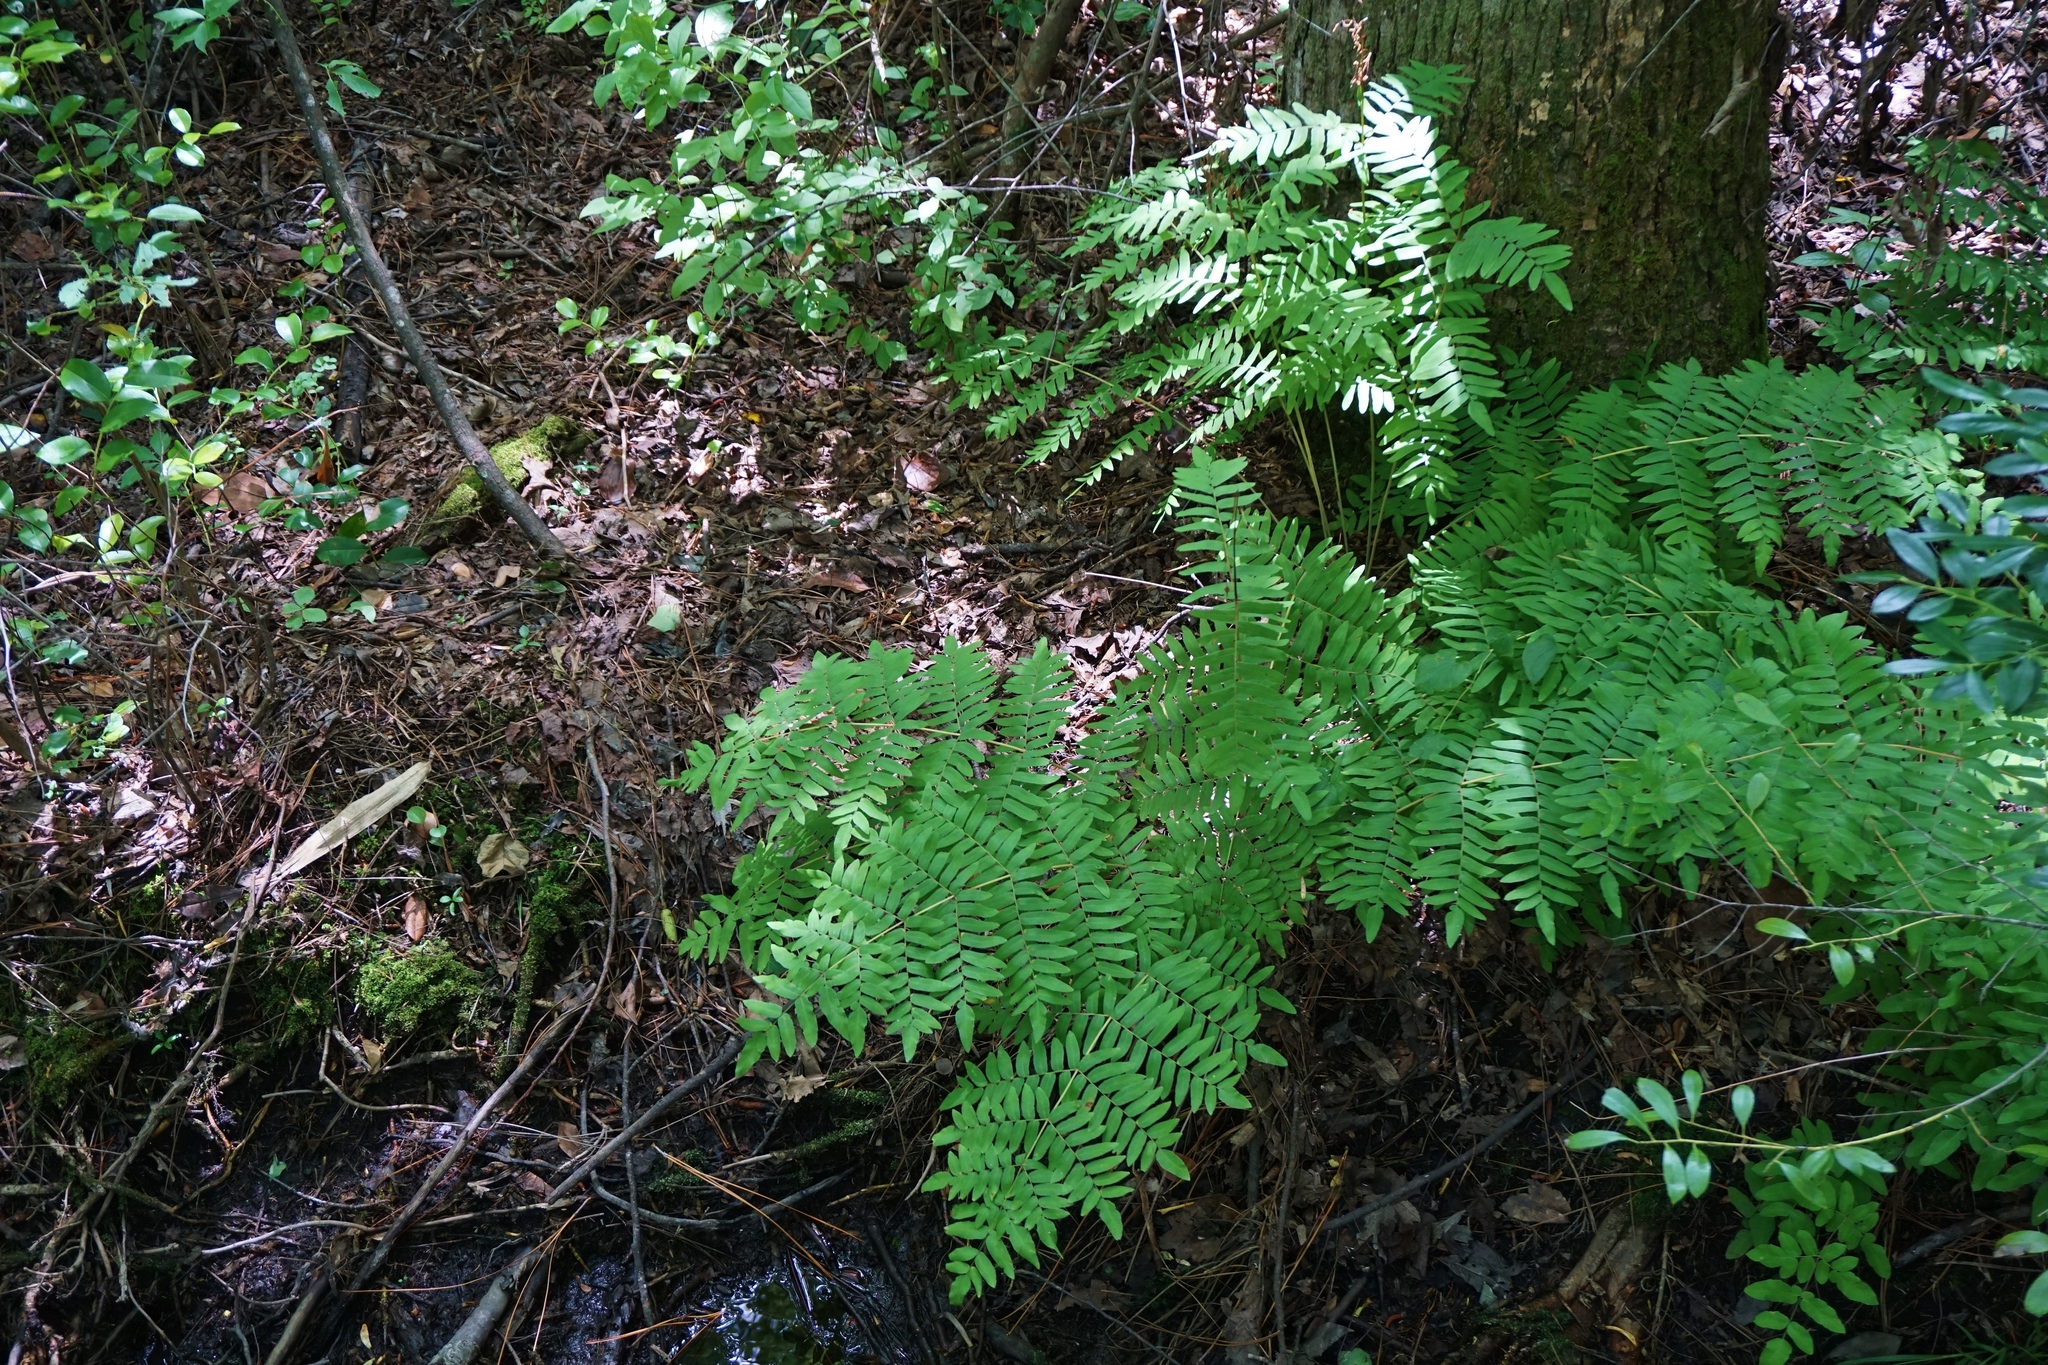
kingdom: Plantae
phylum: Tracheophyta
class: Polypodiopsida
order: Osmundales
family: Osmundaceae
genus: Osmunda
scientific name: Osmunda spectabilis
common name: American royal fern
